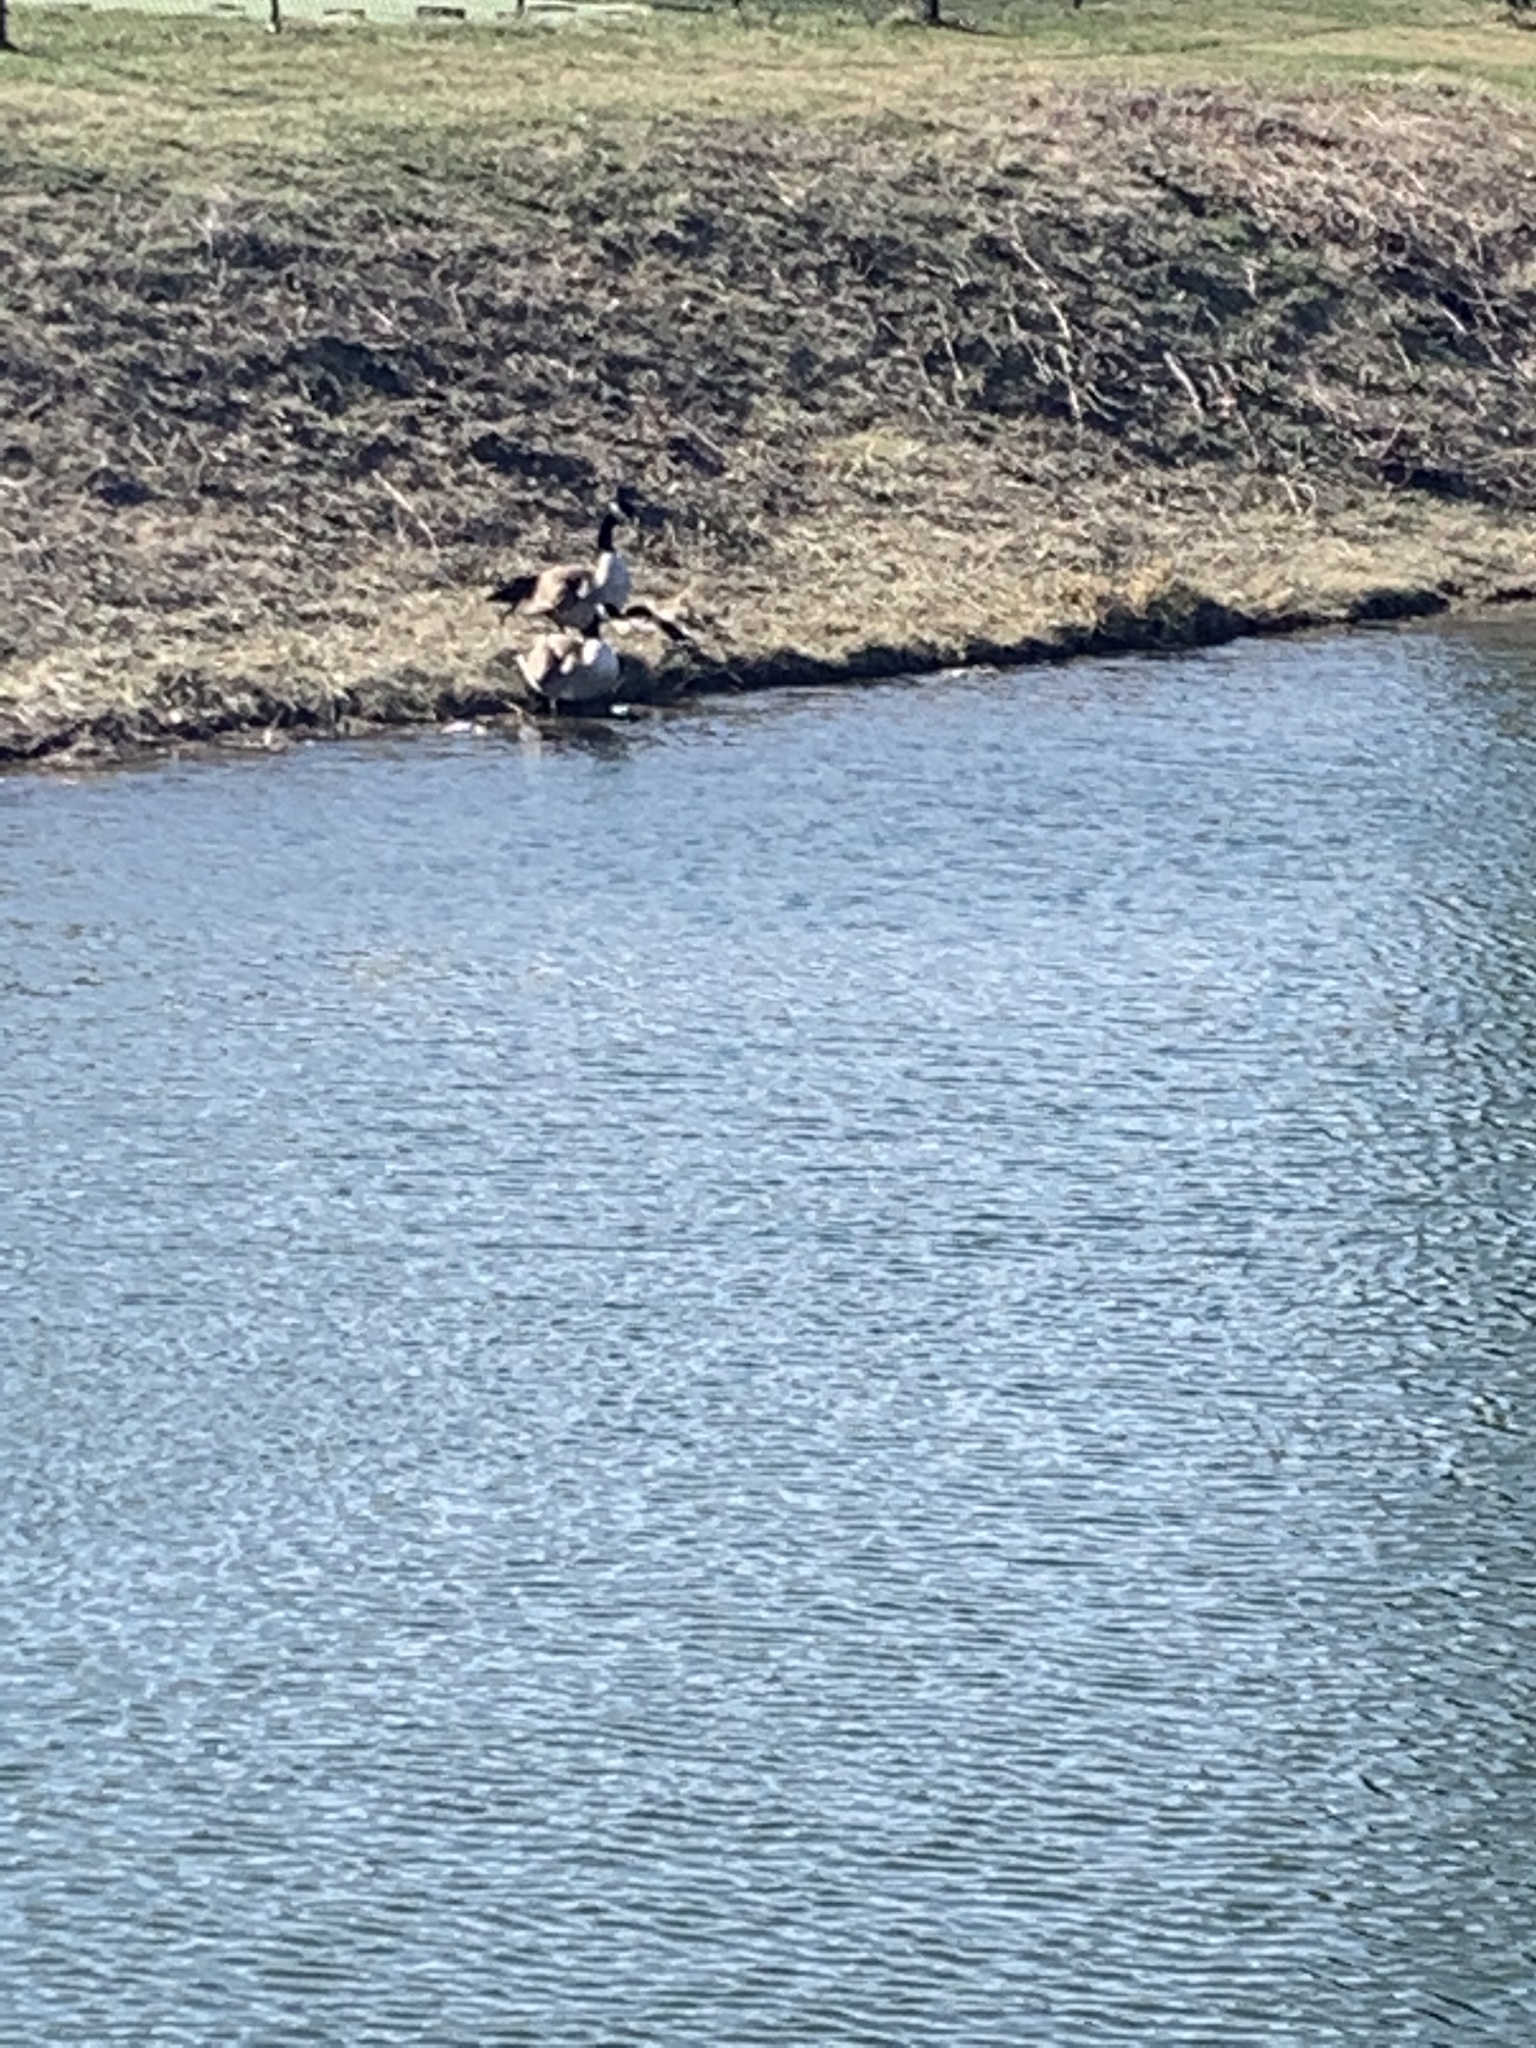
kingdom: Animalia
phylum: Chordata
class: Aves
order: Anseriformes
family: Anatidae
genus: Branta
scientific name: Branta canadensis
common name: Canada goose
